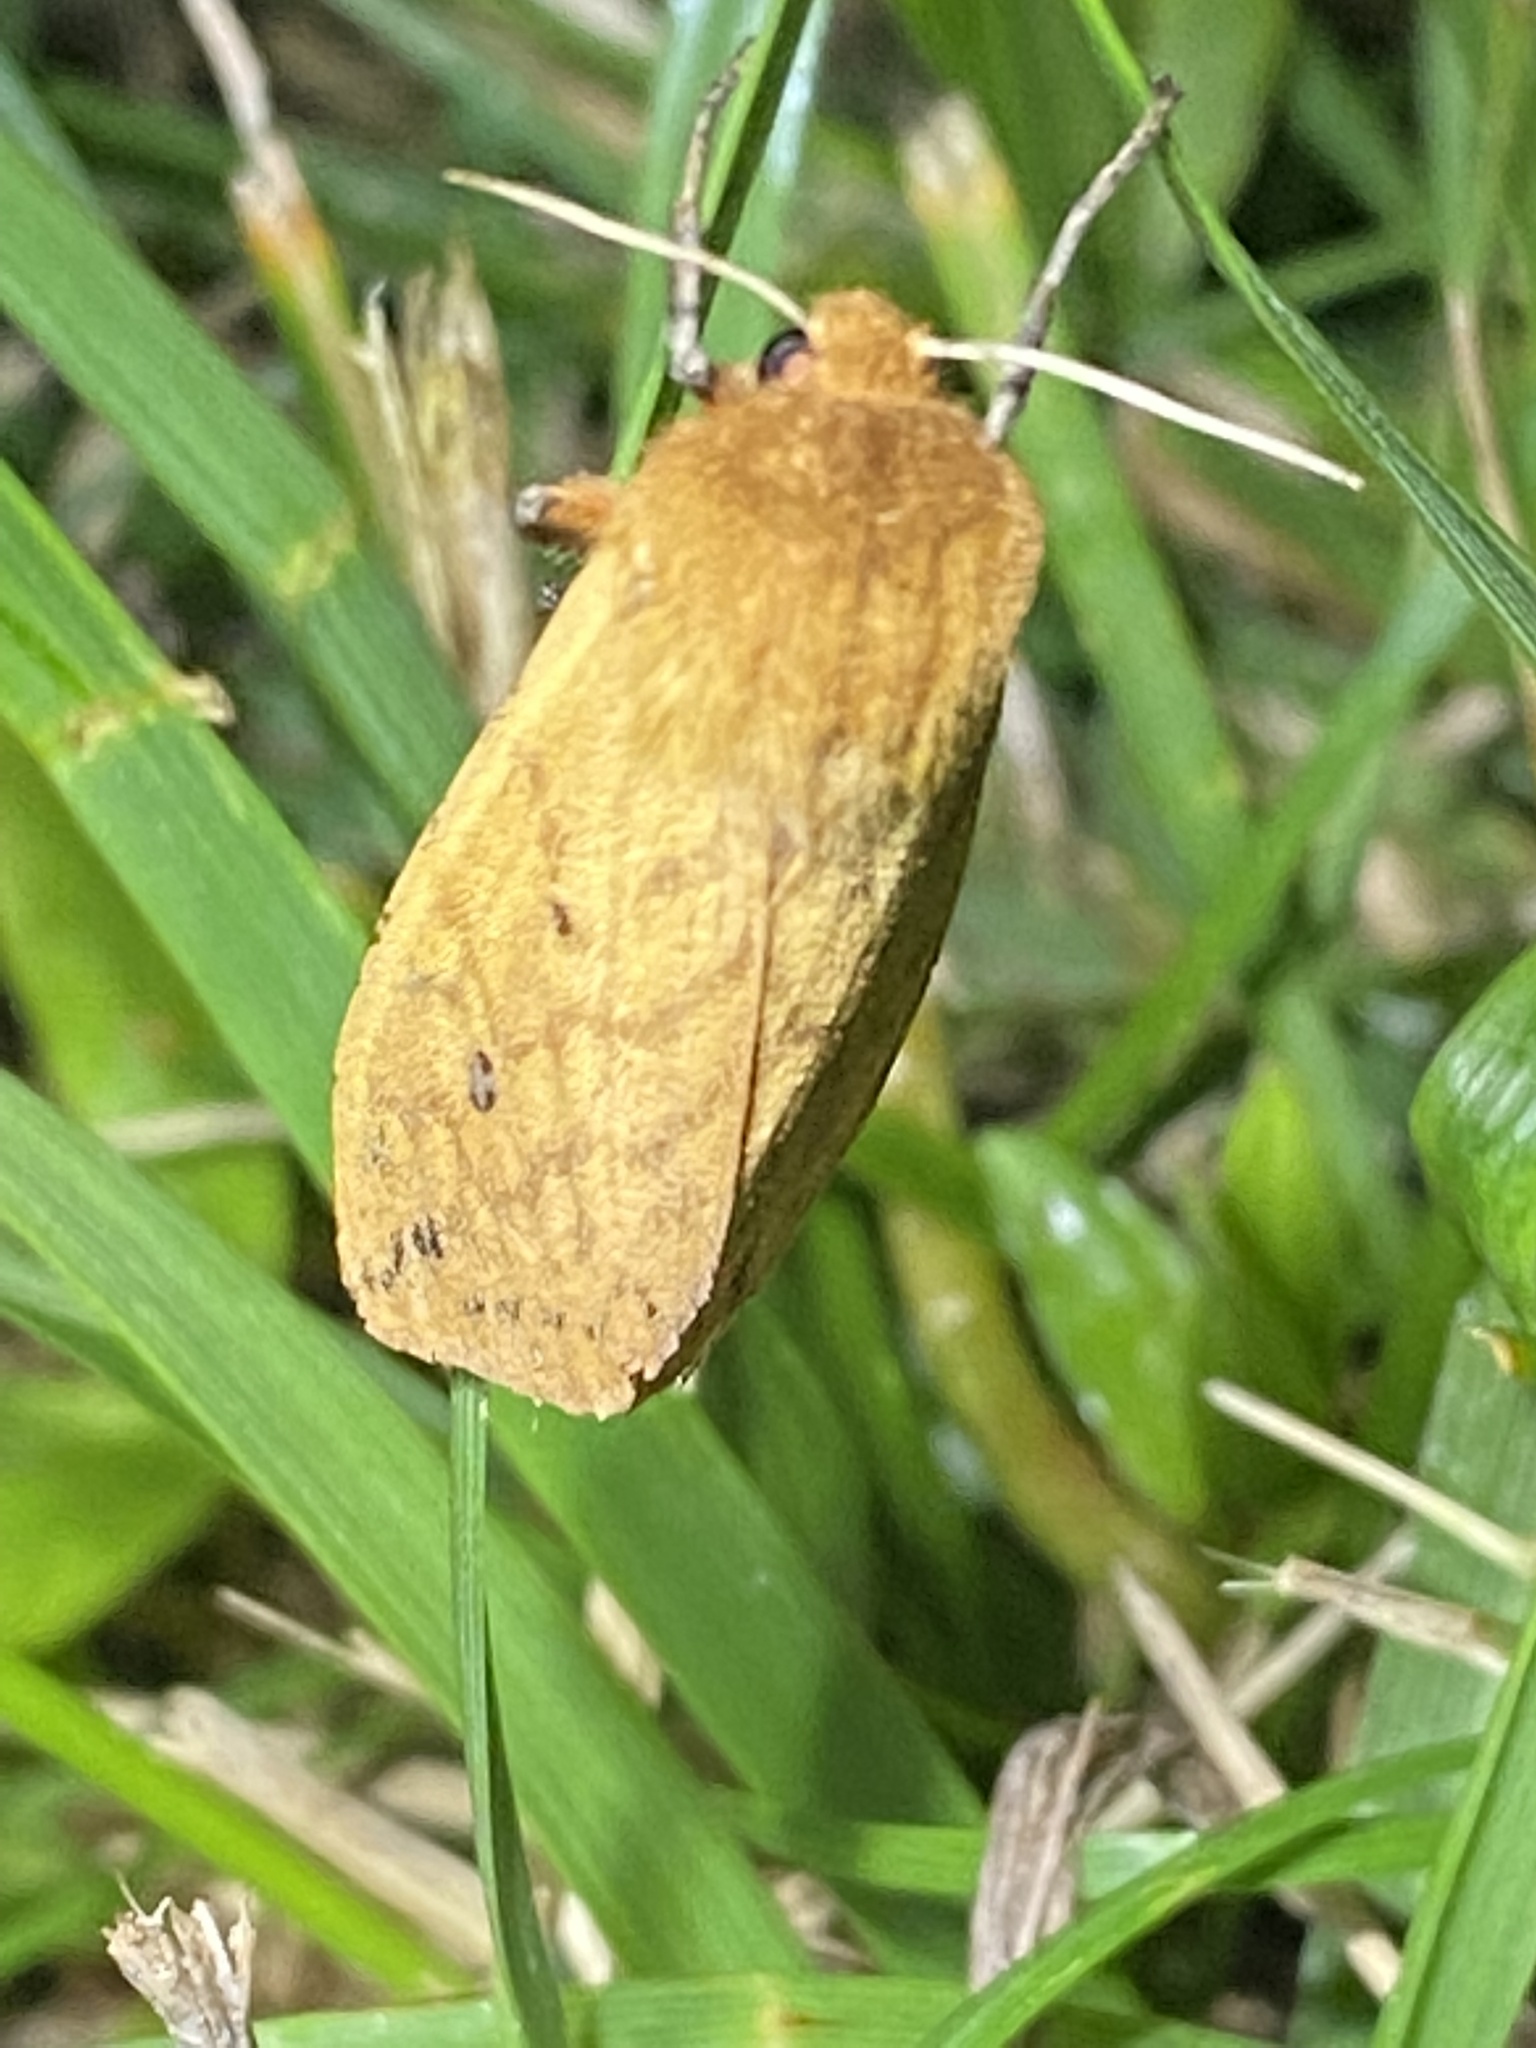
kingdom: Animalia
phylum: Arthropoda
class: Insecta
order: Lepidoptera
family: Erebidae
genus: Pyrrharctia
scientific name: Pyrrharctia isabella
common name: Isabella tiger moth
